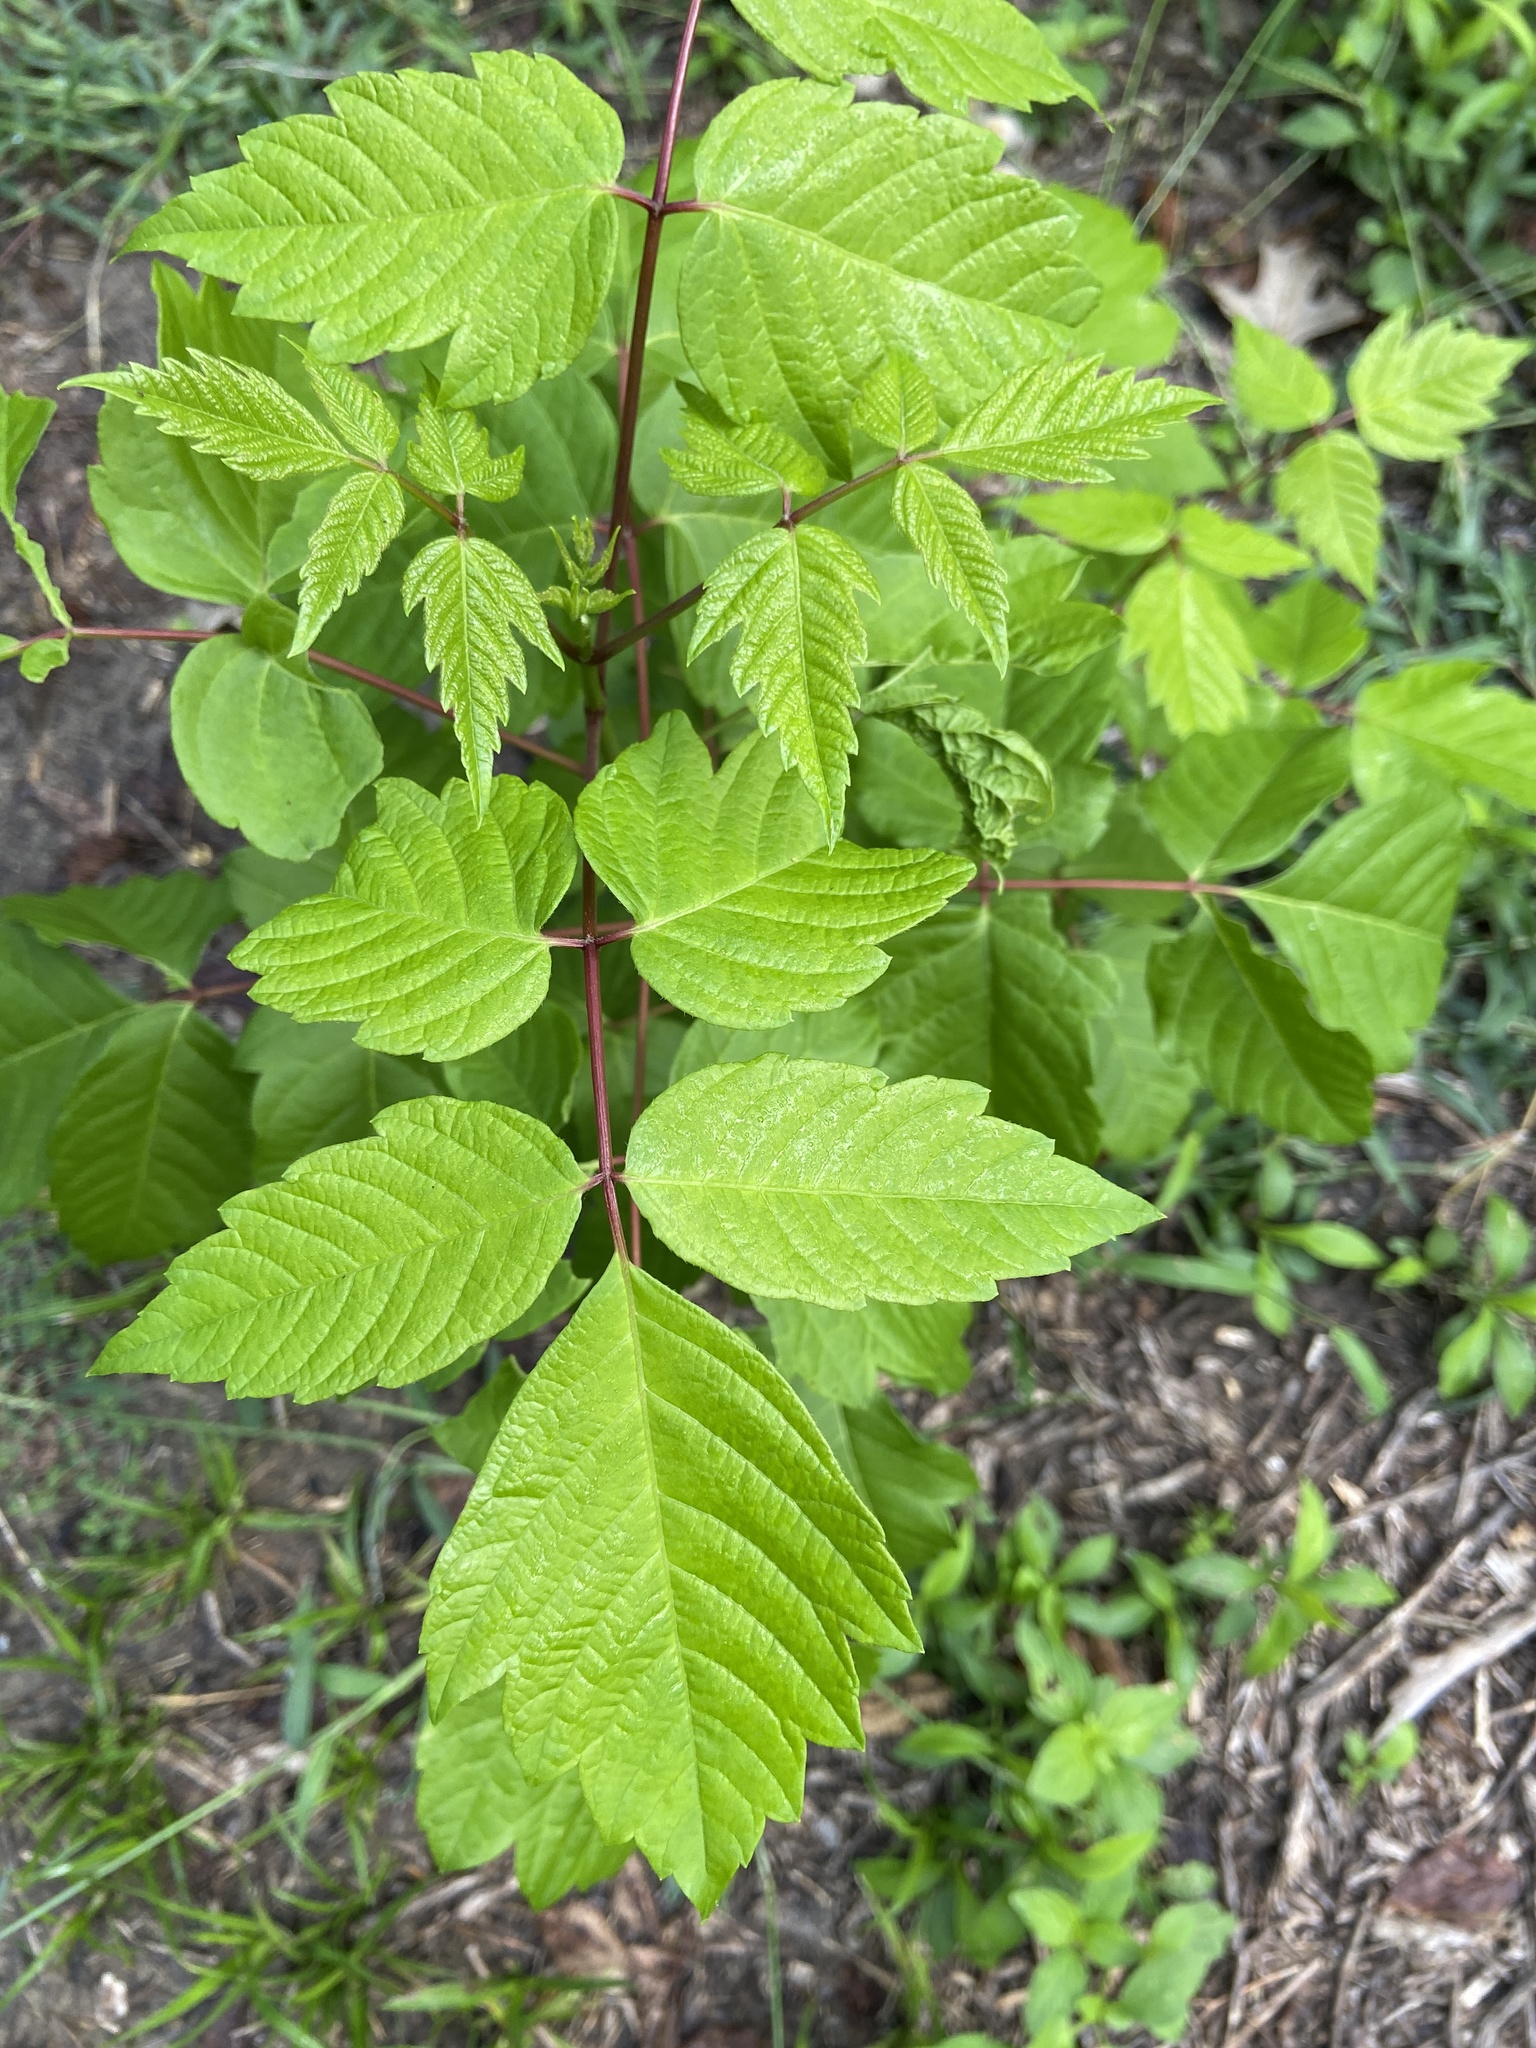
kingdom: Plantae
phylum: Tracheophyta
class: Magnoliopsida
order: Sapindales
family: Sapindaceae
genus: Acer
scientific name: Acer negundo
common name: Ashleaf maple
